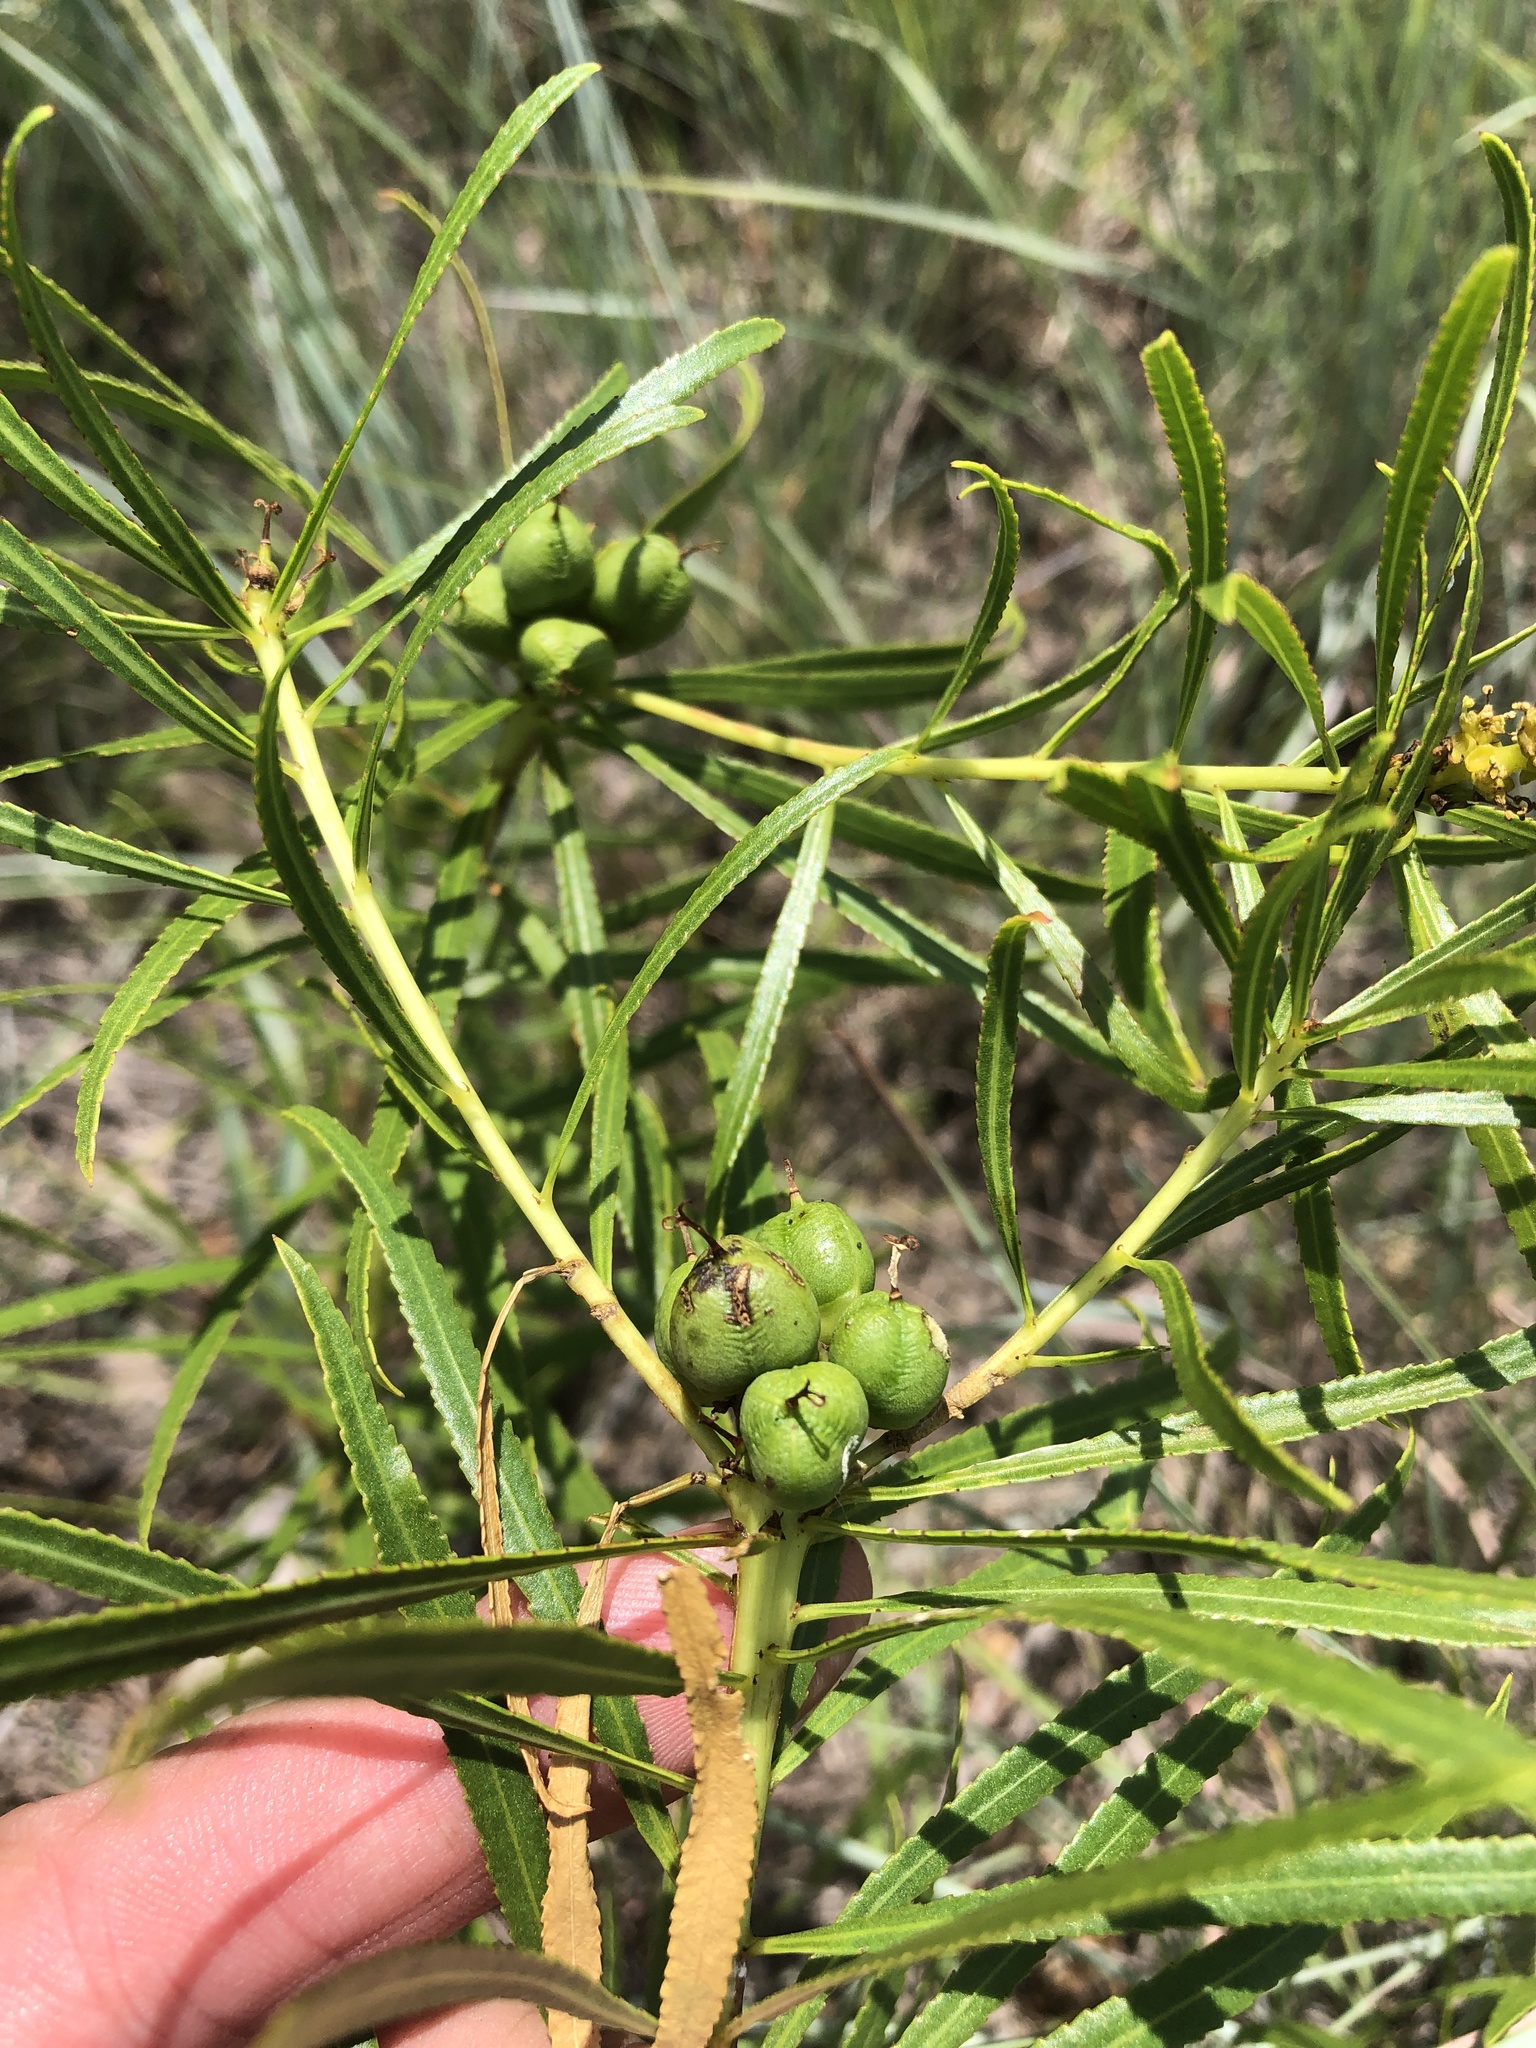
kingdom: Plantae
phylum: Tracheophyta
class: Magnoliopsida
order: Malpighiales
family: Euphorbiaceae
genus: Stillingia
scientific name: Stillingia texana
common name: Texas stillingia
